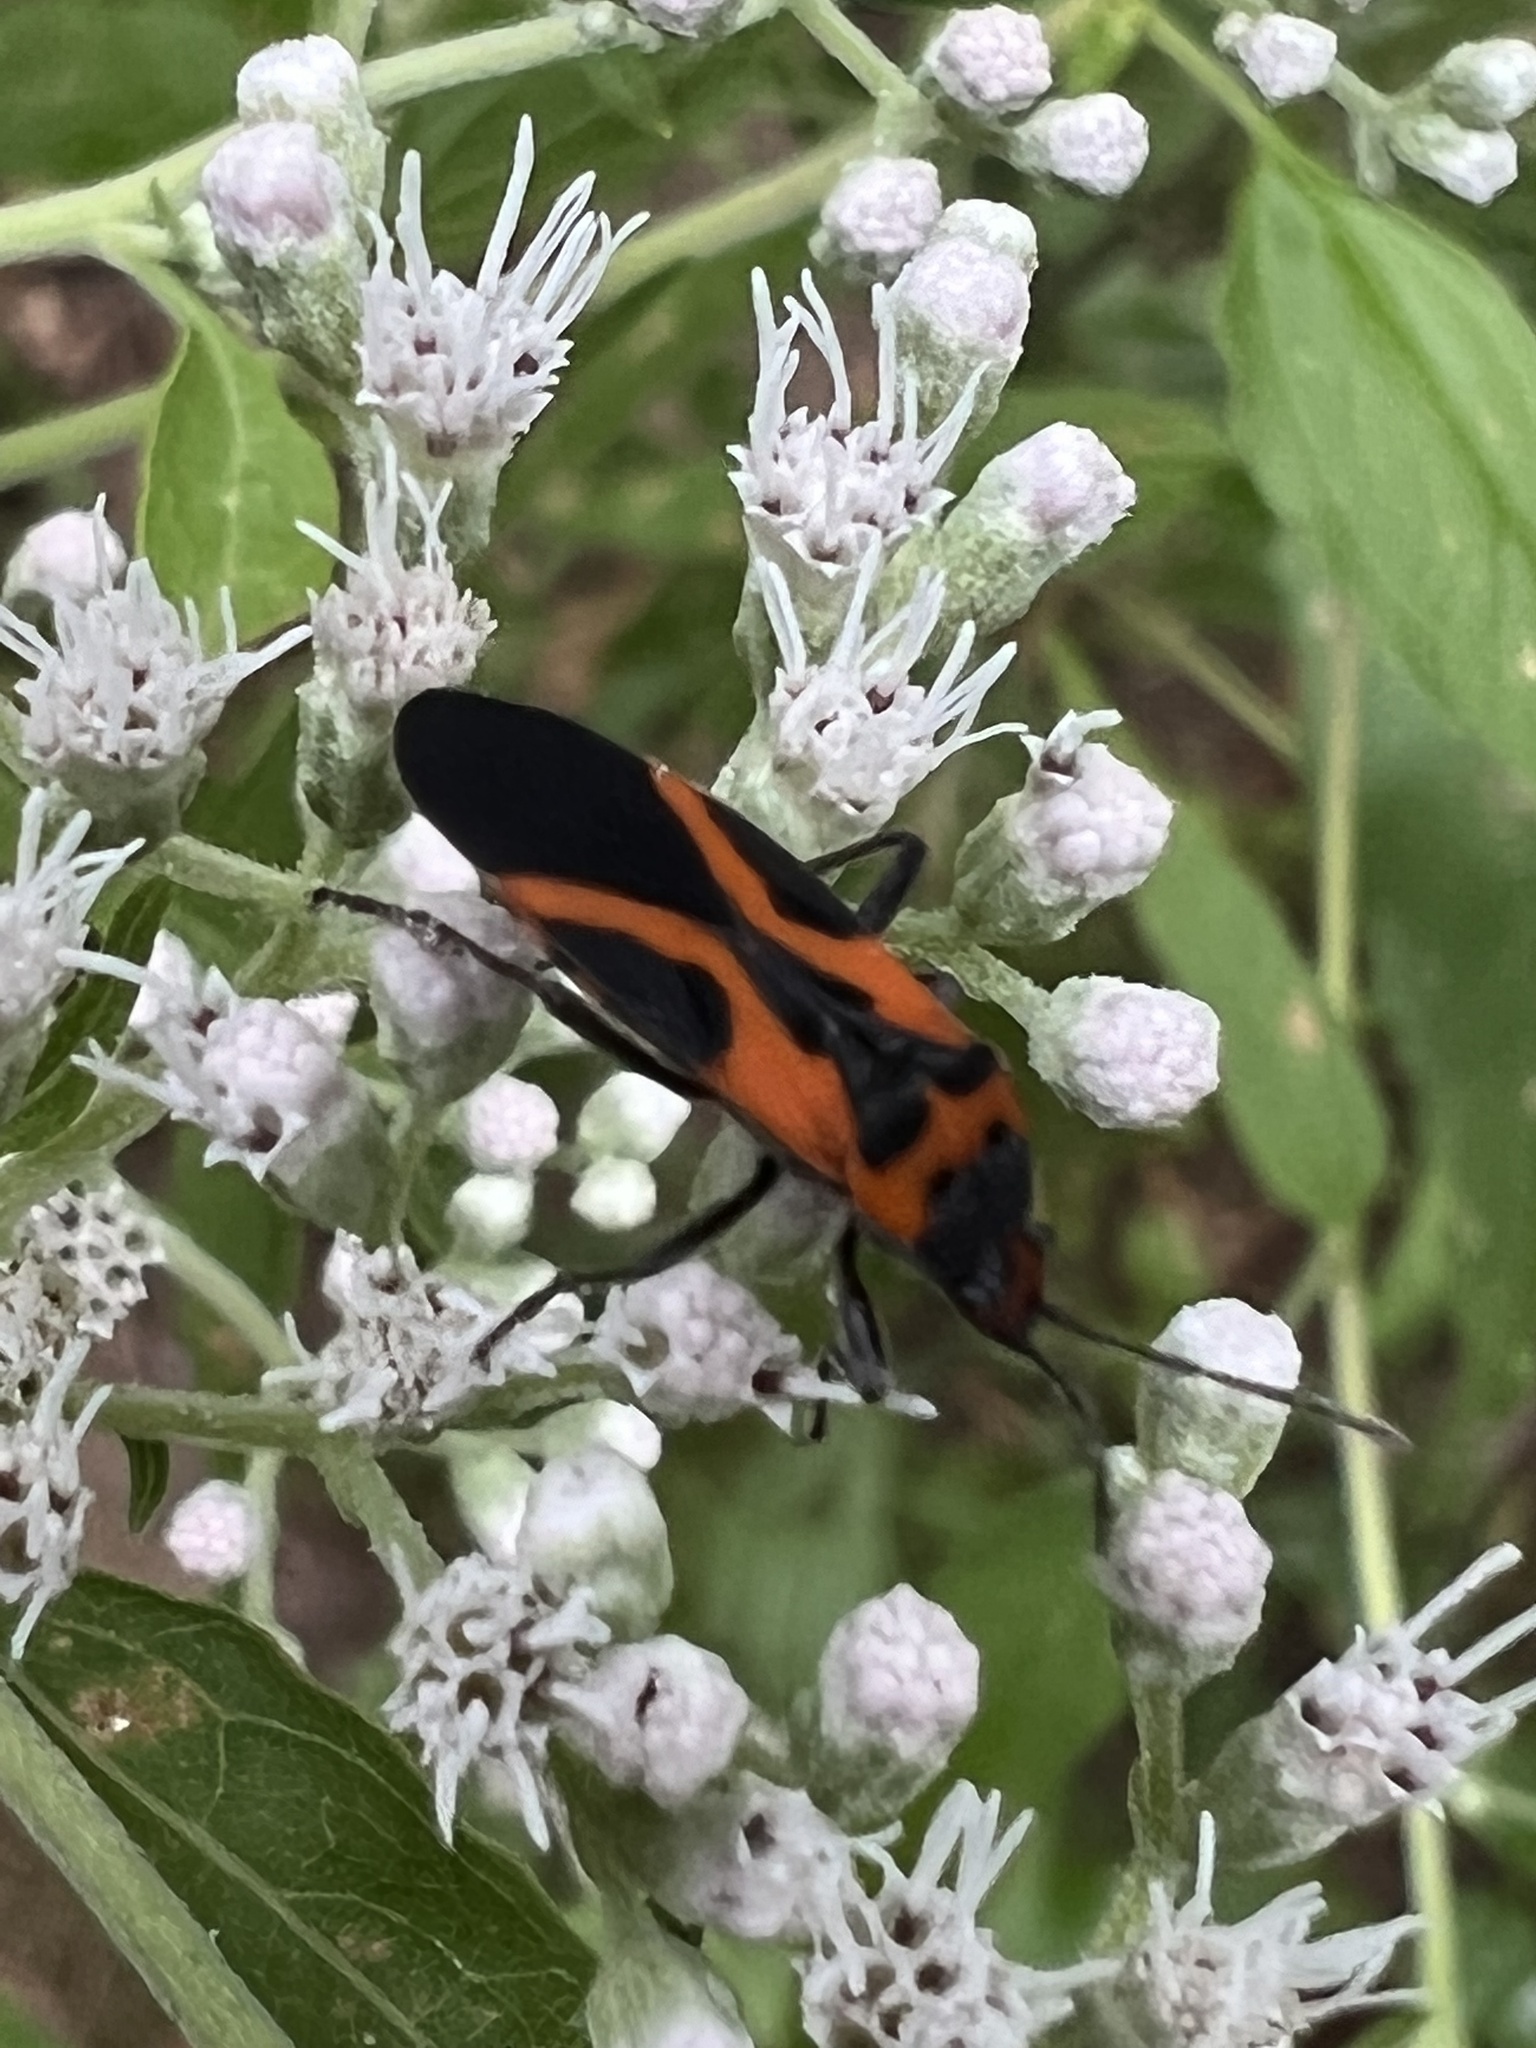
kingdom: Animalia
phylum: Arthropoda
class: Insecta
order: Hemiptera
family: Lygaeidae
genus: Lygaeus
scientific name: Lygaeus turcicus
